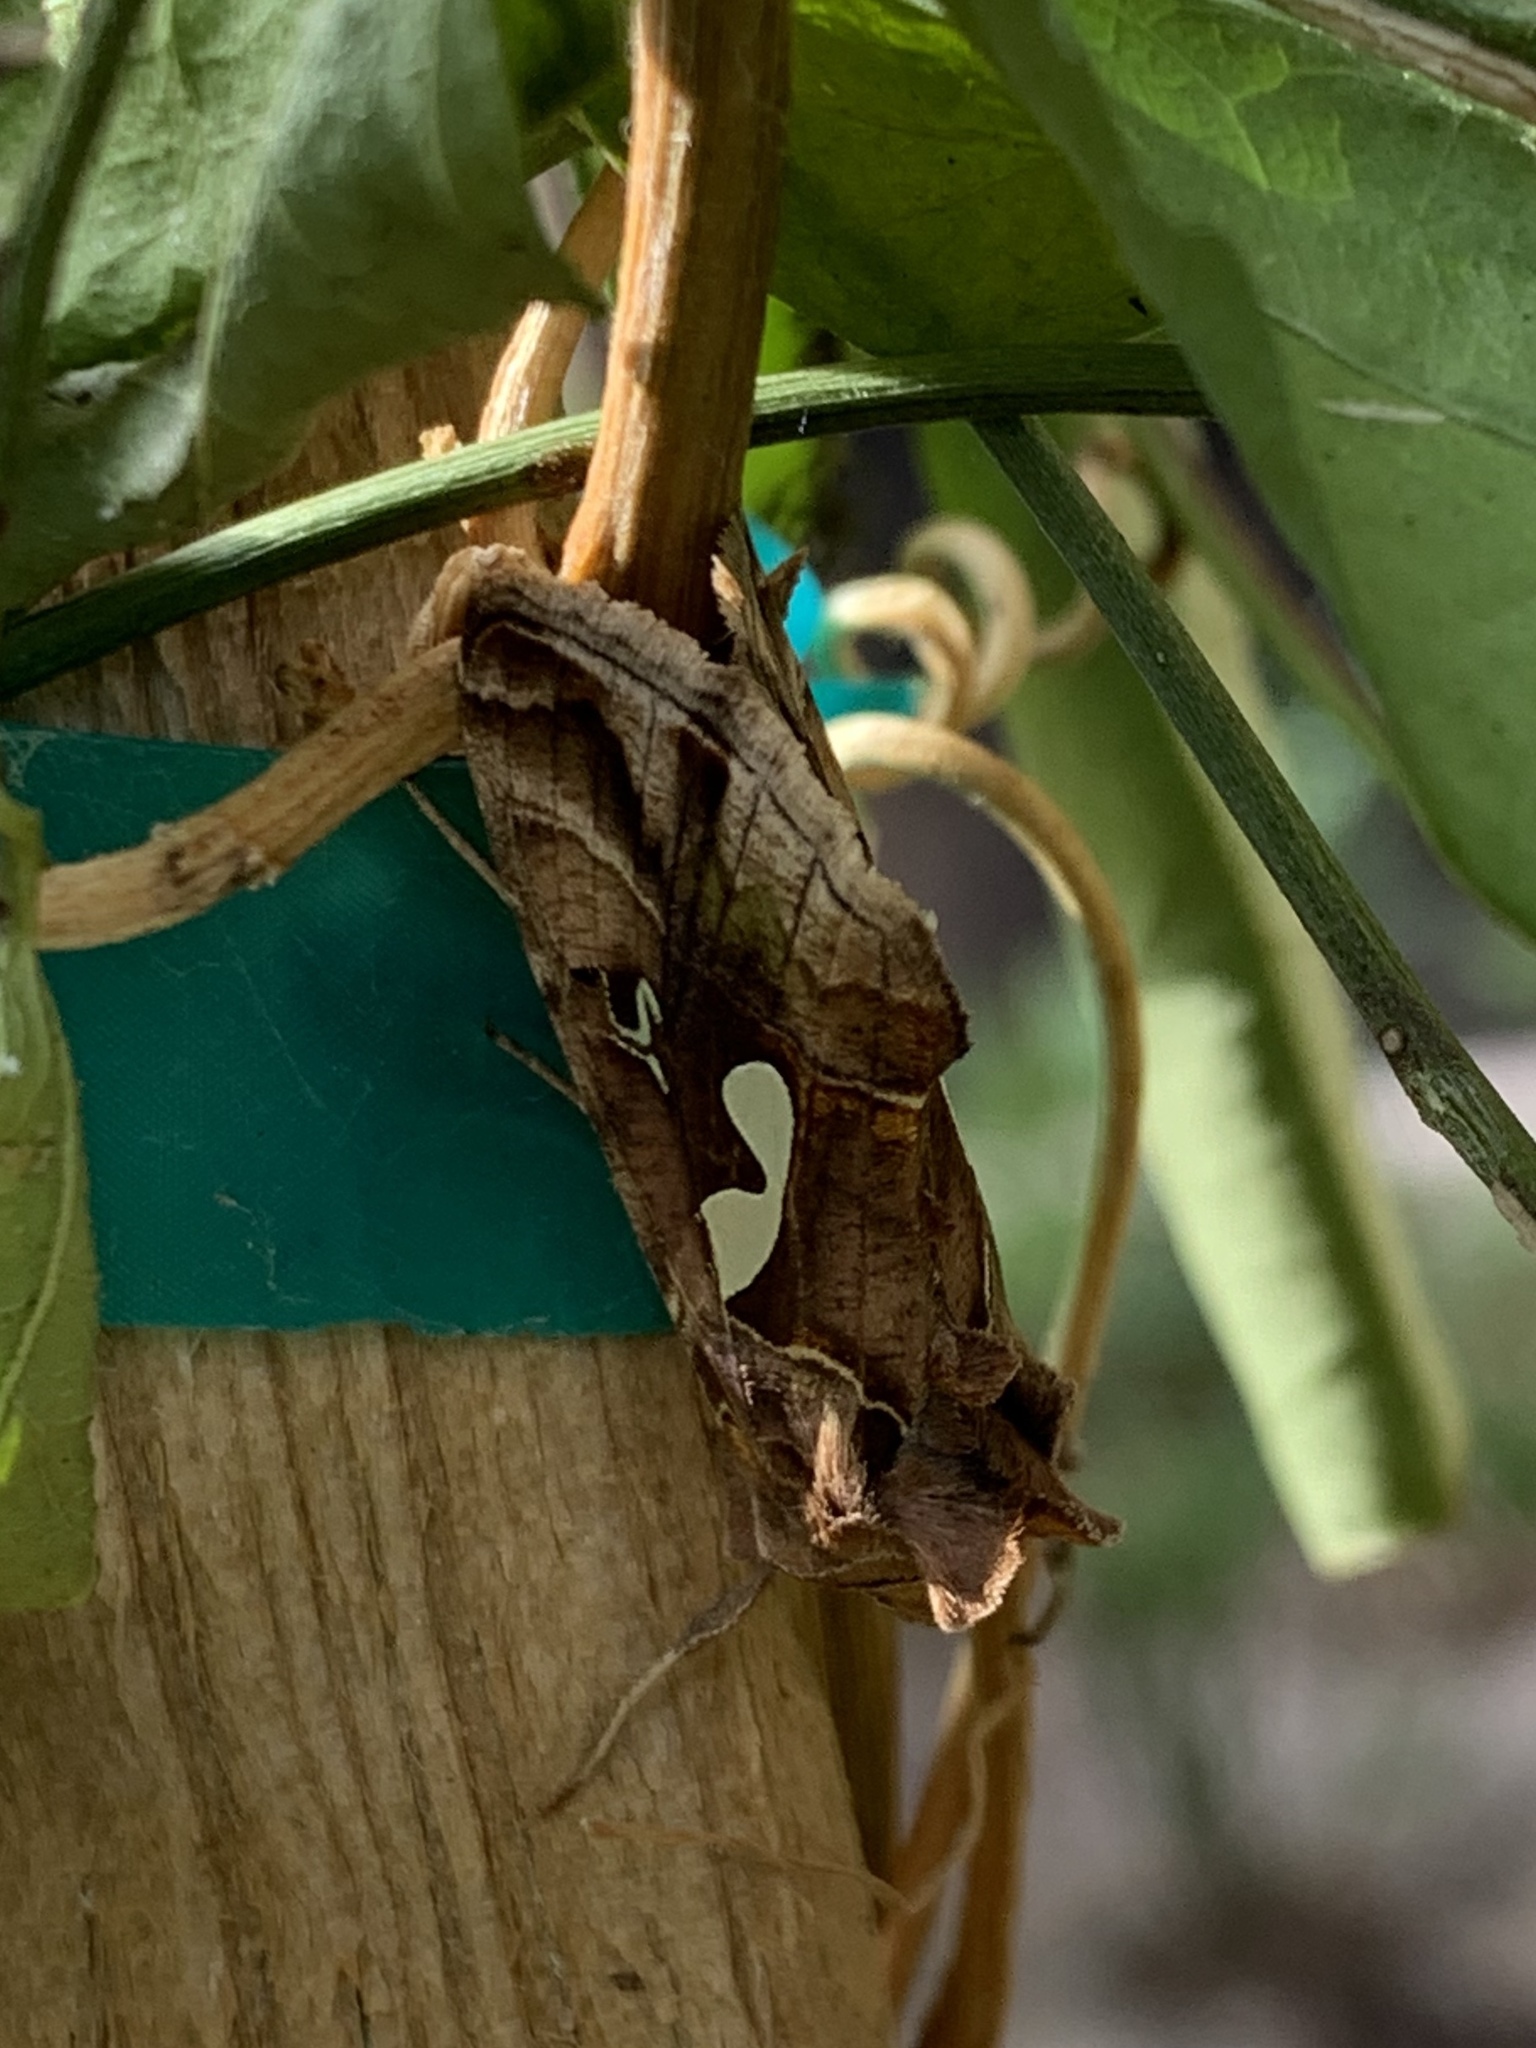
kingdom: Animalia
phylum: Arthropoda
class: Insecta
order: Lepidoptera
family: Noctuidae
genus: Megalographa
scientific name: Megalographa biloba
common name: Cutworm
